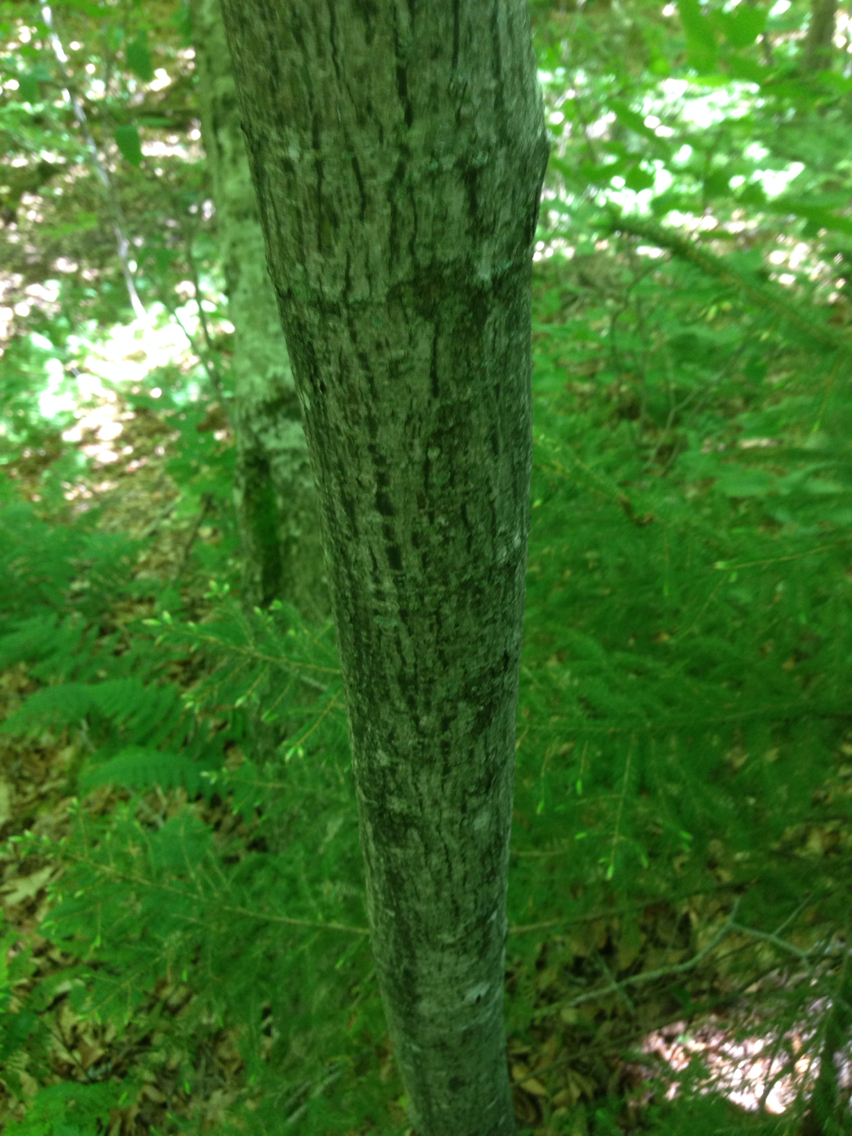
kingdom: Plantae
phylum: Tracheophyta
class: Magnoliopsida
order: Sapindales
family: Sapindaceae
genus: Acer
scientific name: Acer pensylvanicum
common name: Moosewood
